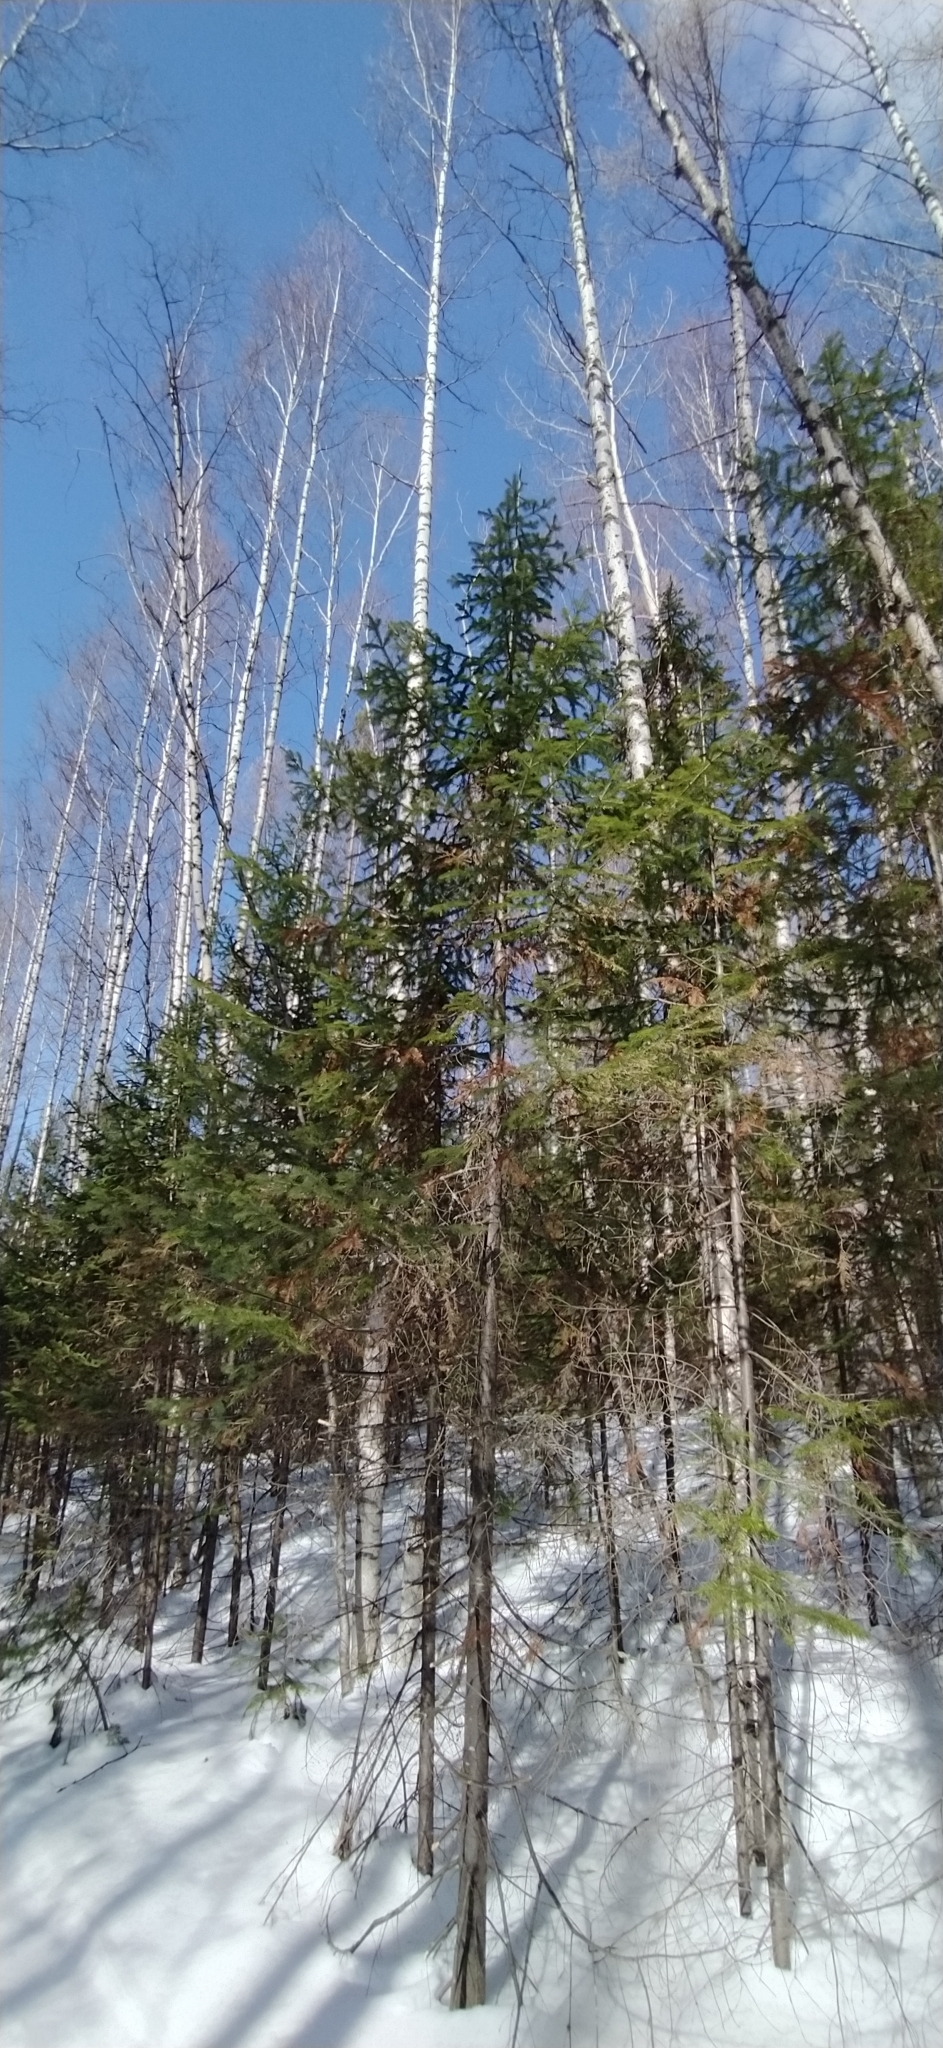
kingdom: Plantae
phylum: Tracheophyta
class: Pinopsida
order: Pinales
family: Pinaceae
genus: Abies
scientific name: Abies sibirica
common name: Siberian fir
